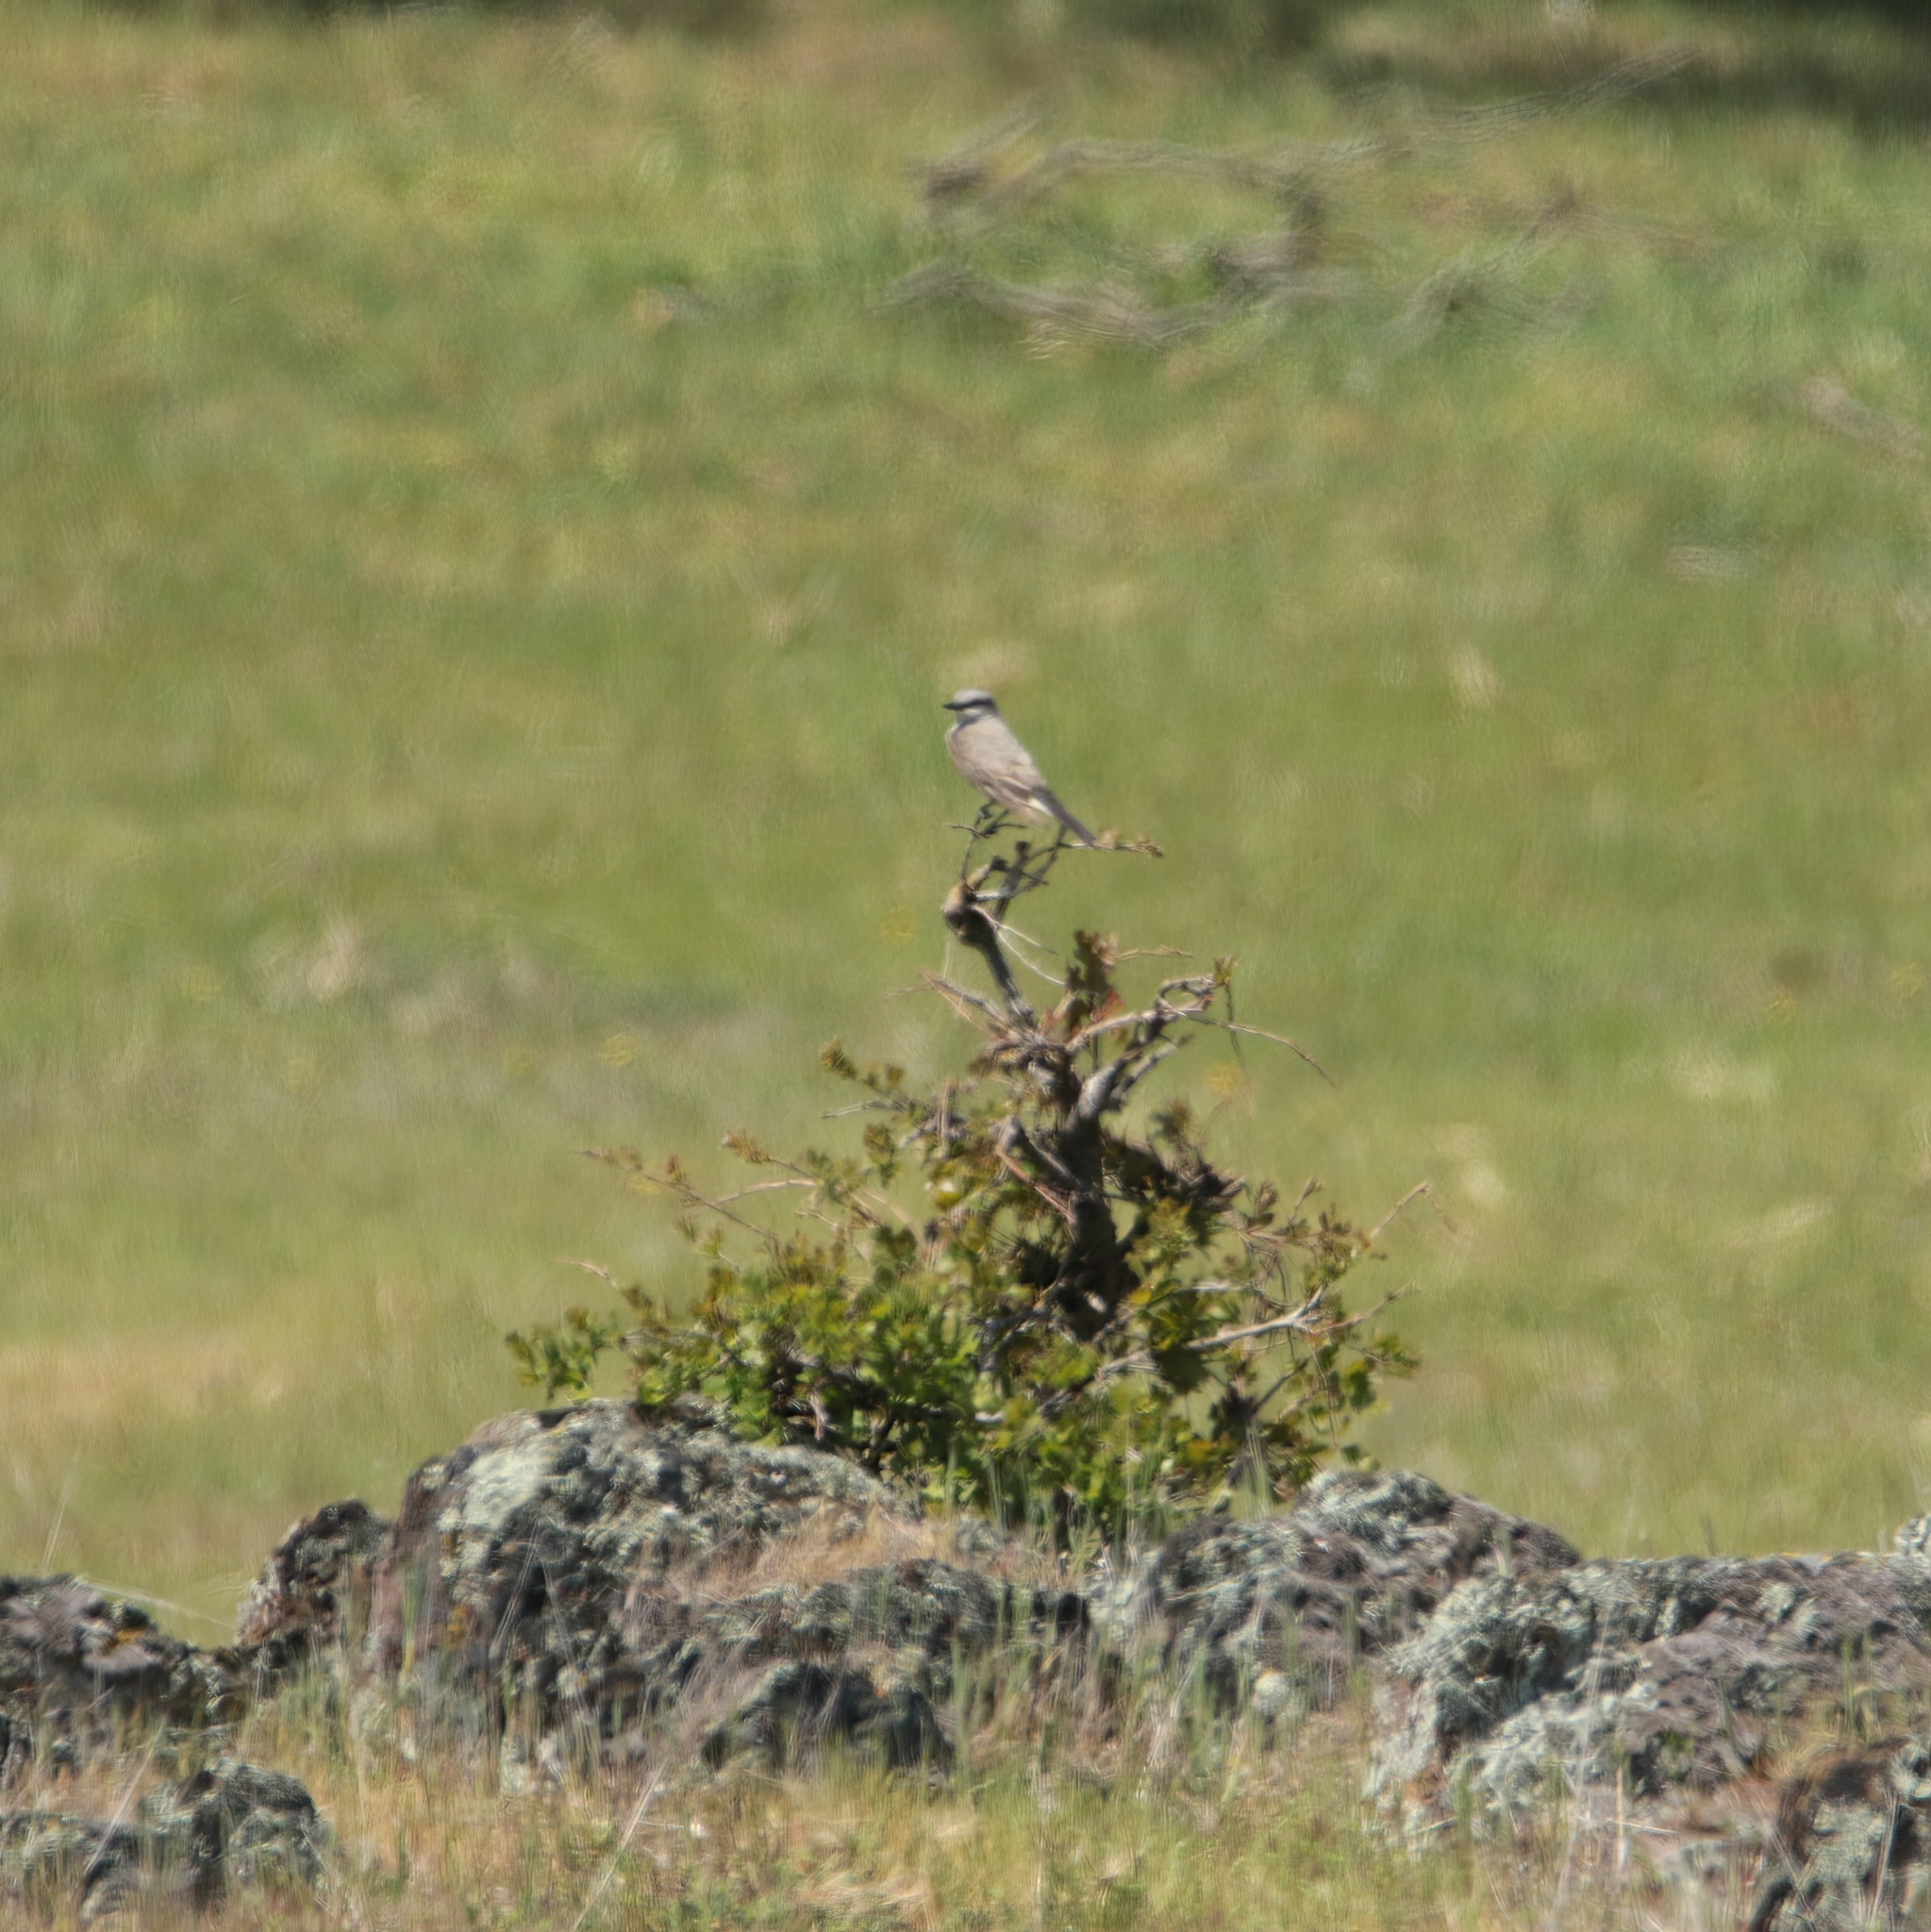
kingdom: Animalia
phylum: Chordata
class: Aves
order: Passeriformes
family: Tyrannidae
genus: Tyrannus
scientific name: Tyrannus verticalis
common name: Western kingbird
